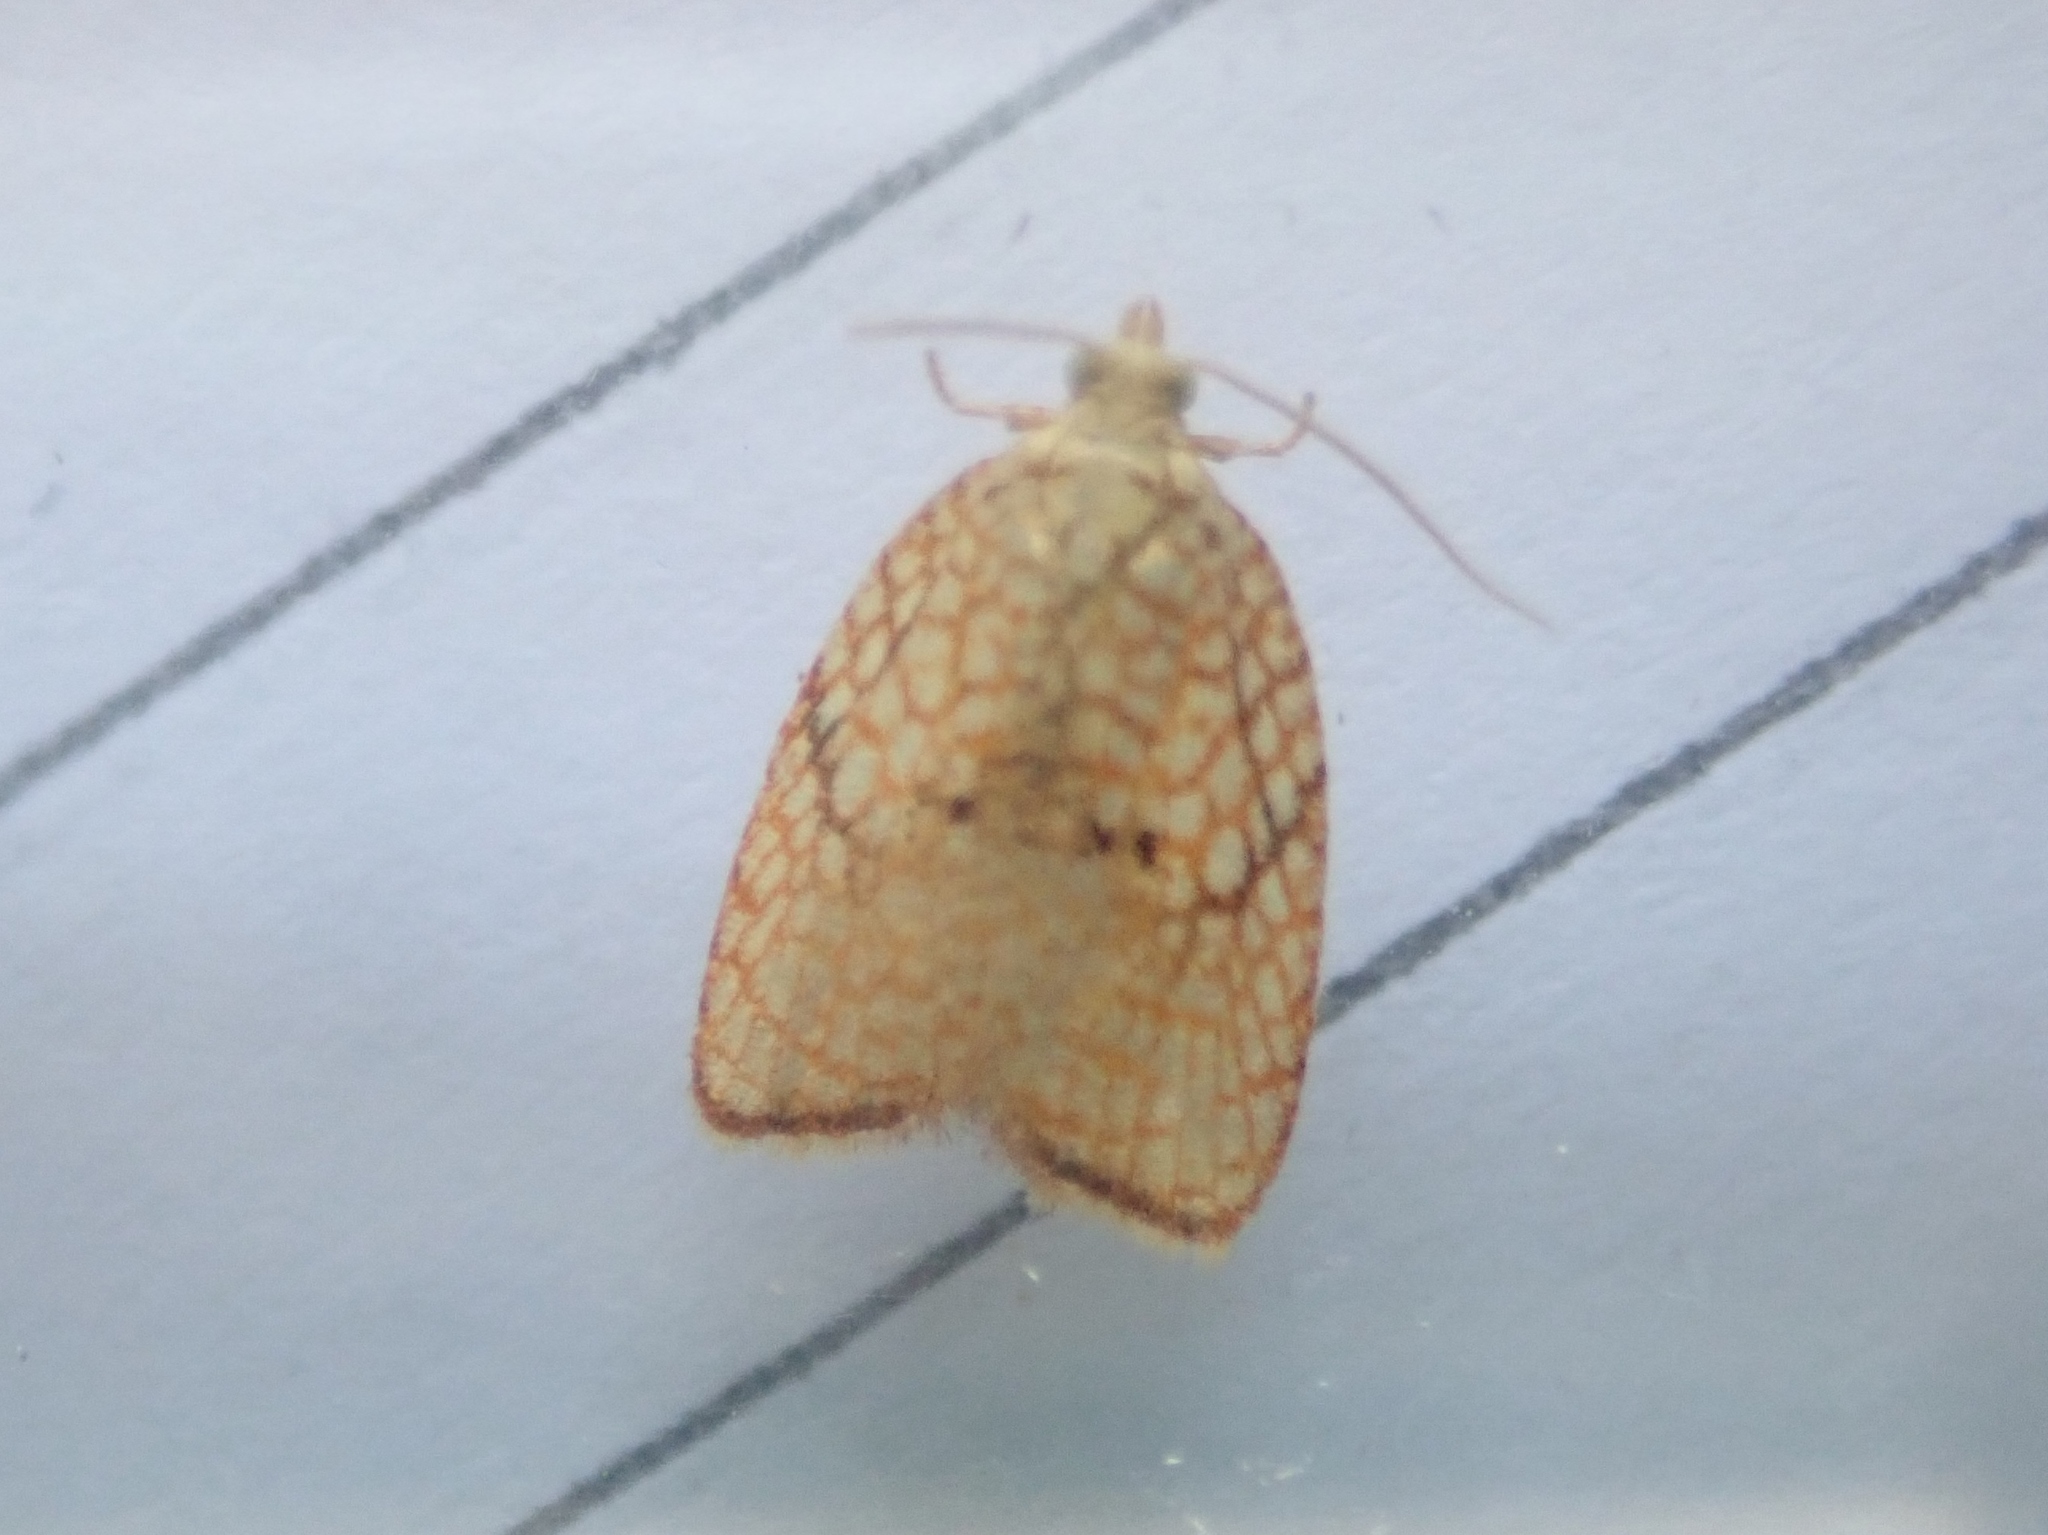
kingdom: Animalia
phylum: Arthropoda
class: Insecta
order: Lepidoptera
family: Tortricidae
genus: Acleris
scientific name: Acleris forsskaleana
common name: Maple button
